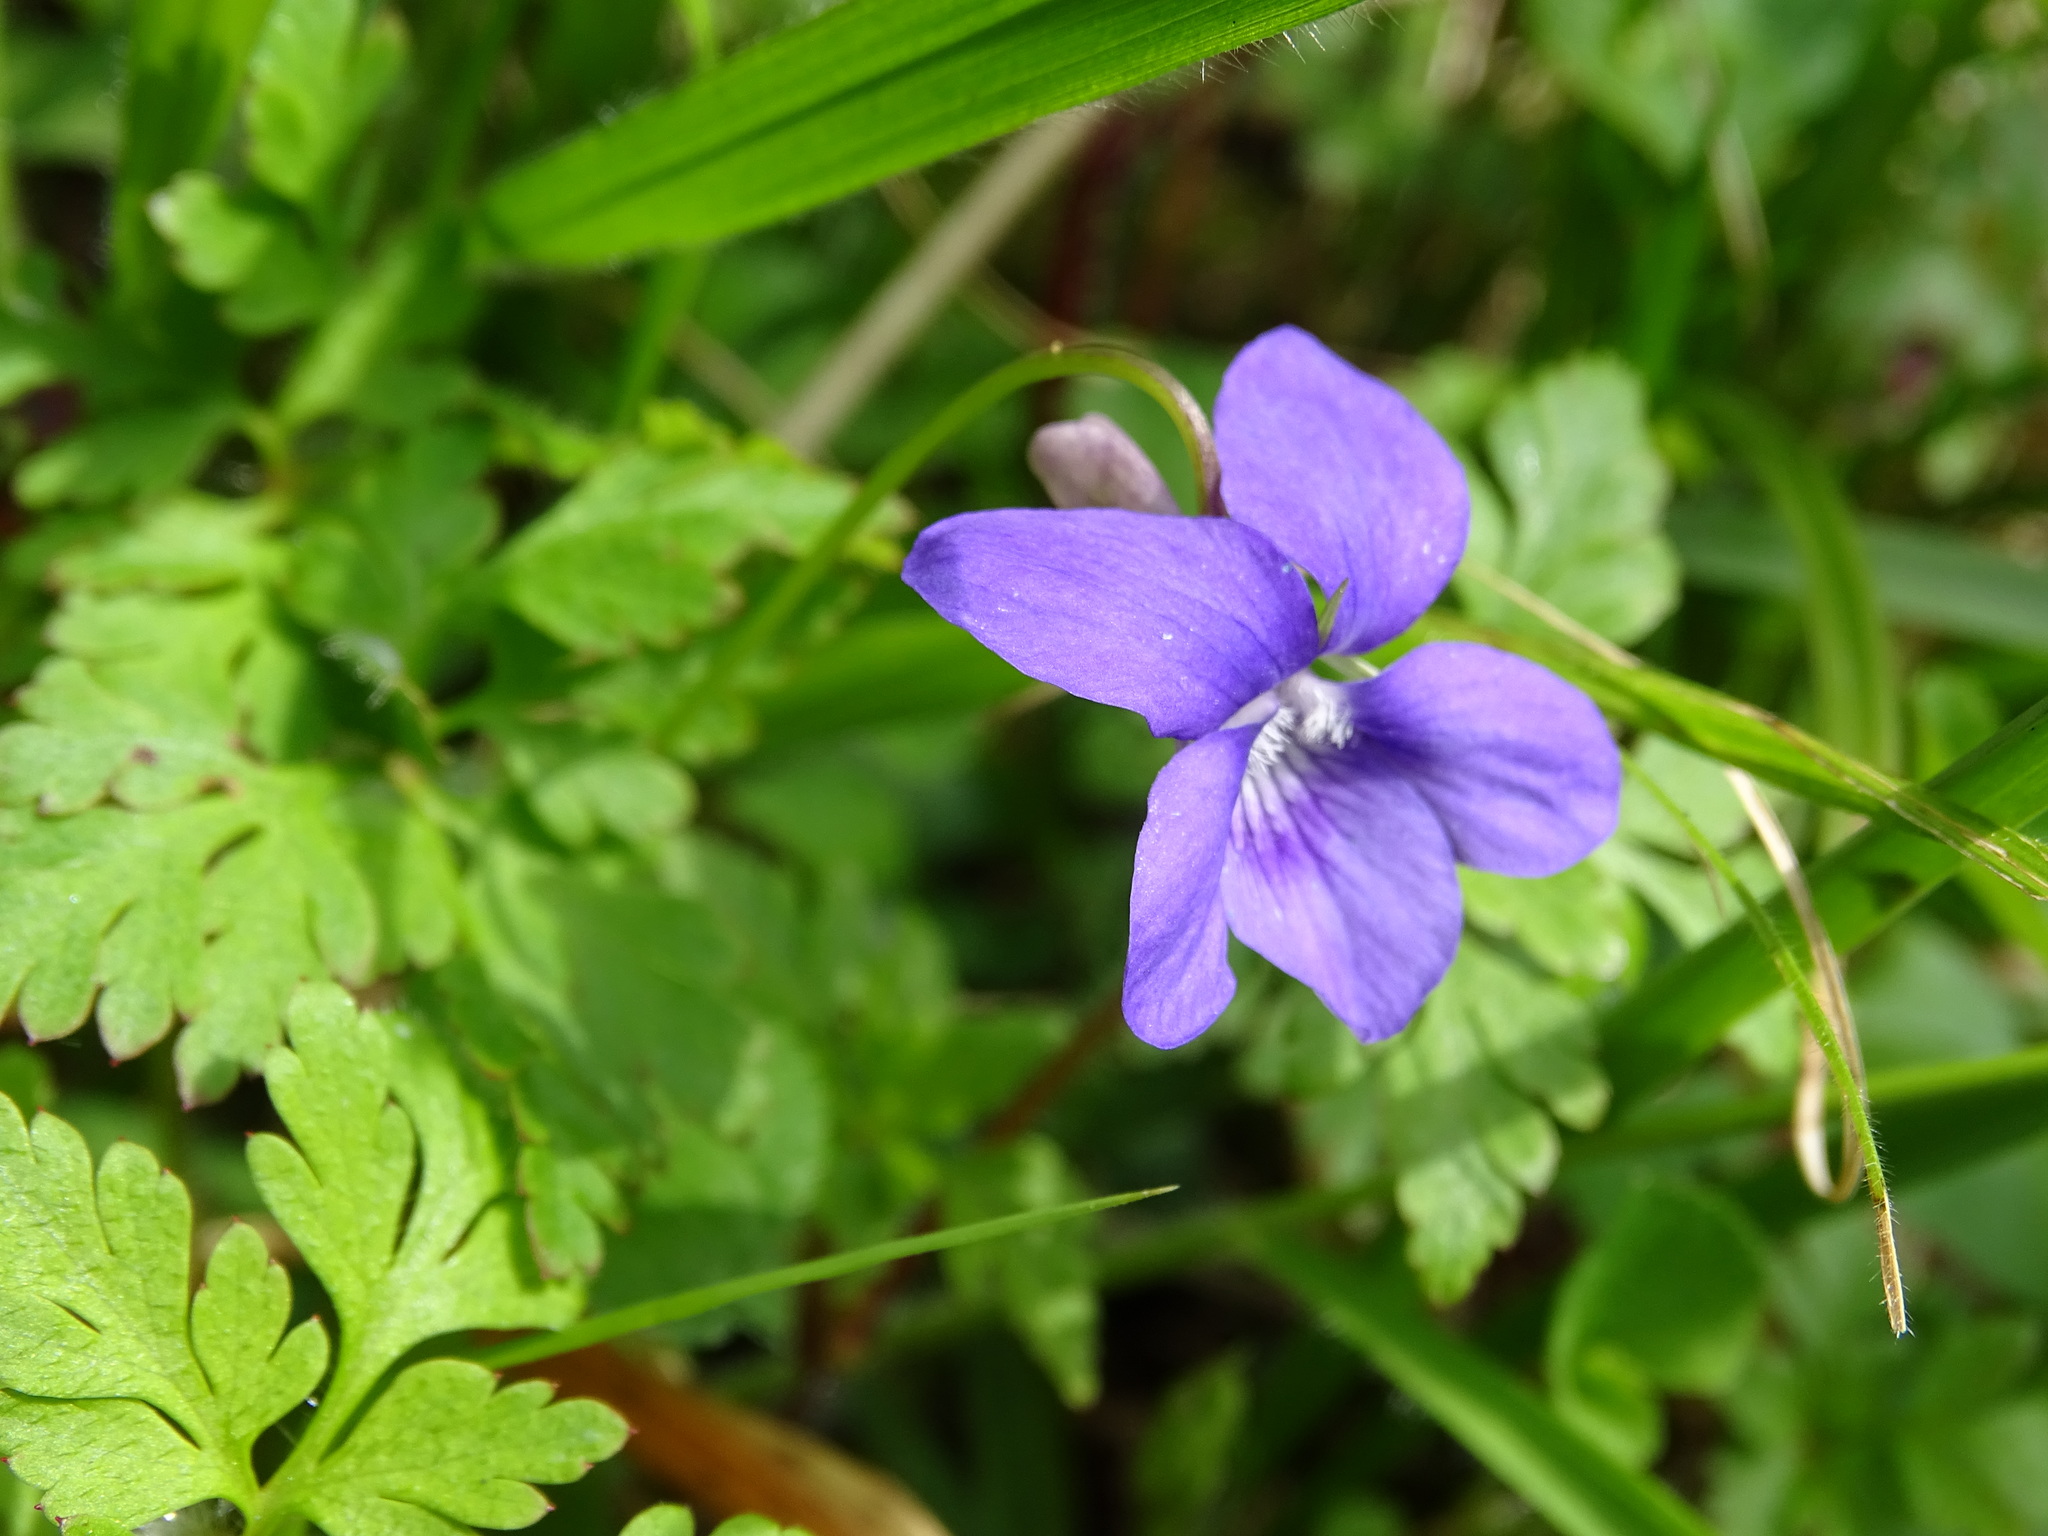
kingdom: Plantae
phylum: Tracheophyta
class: Magnoliopsida
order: Malpighiales
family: Violaceae
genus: Viola
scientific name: Viola riviniana
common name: Common dog-violet
